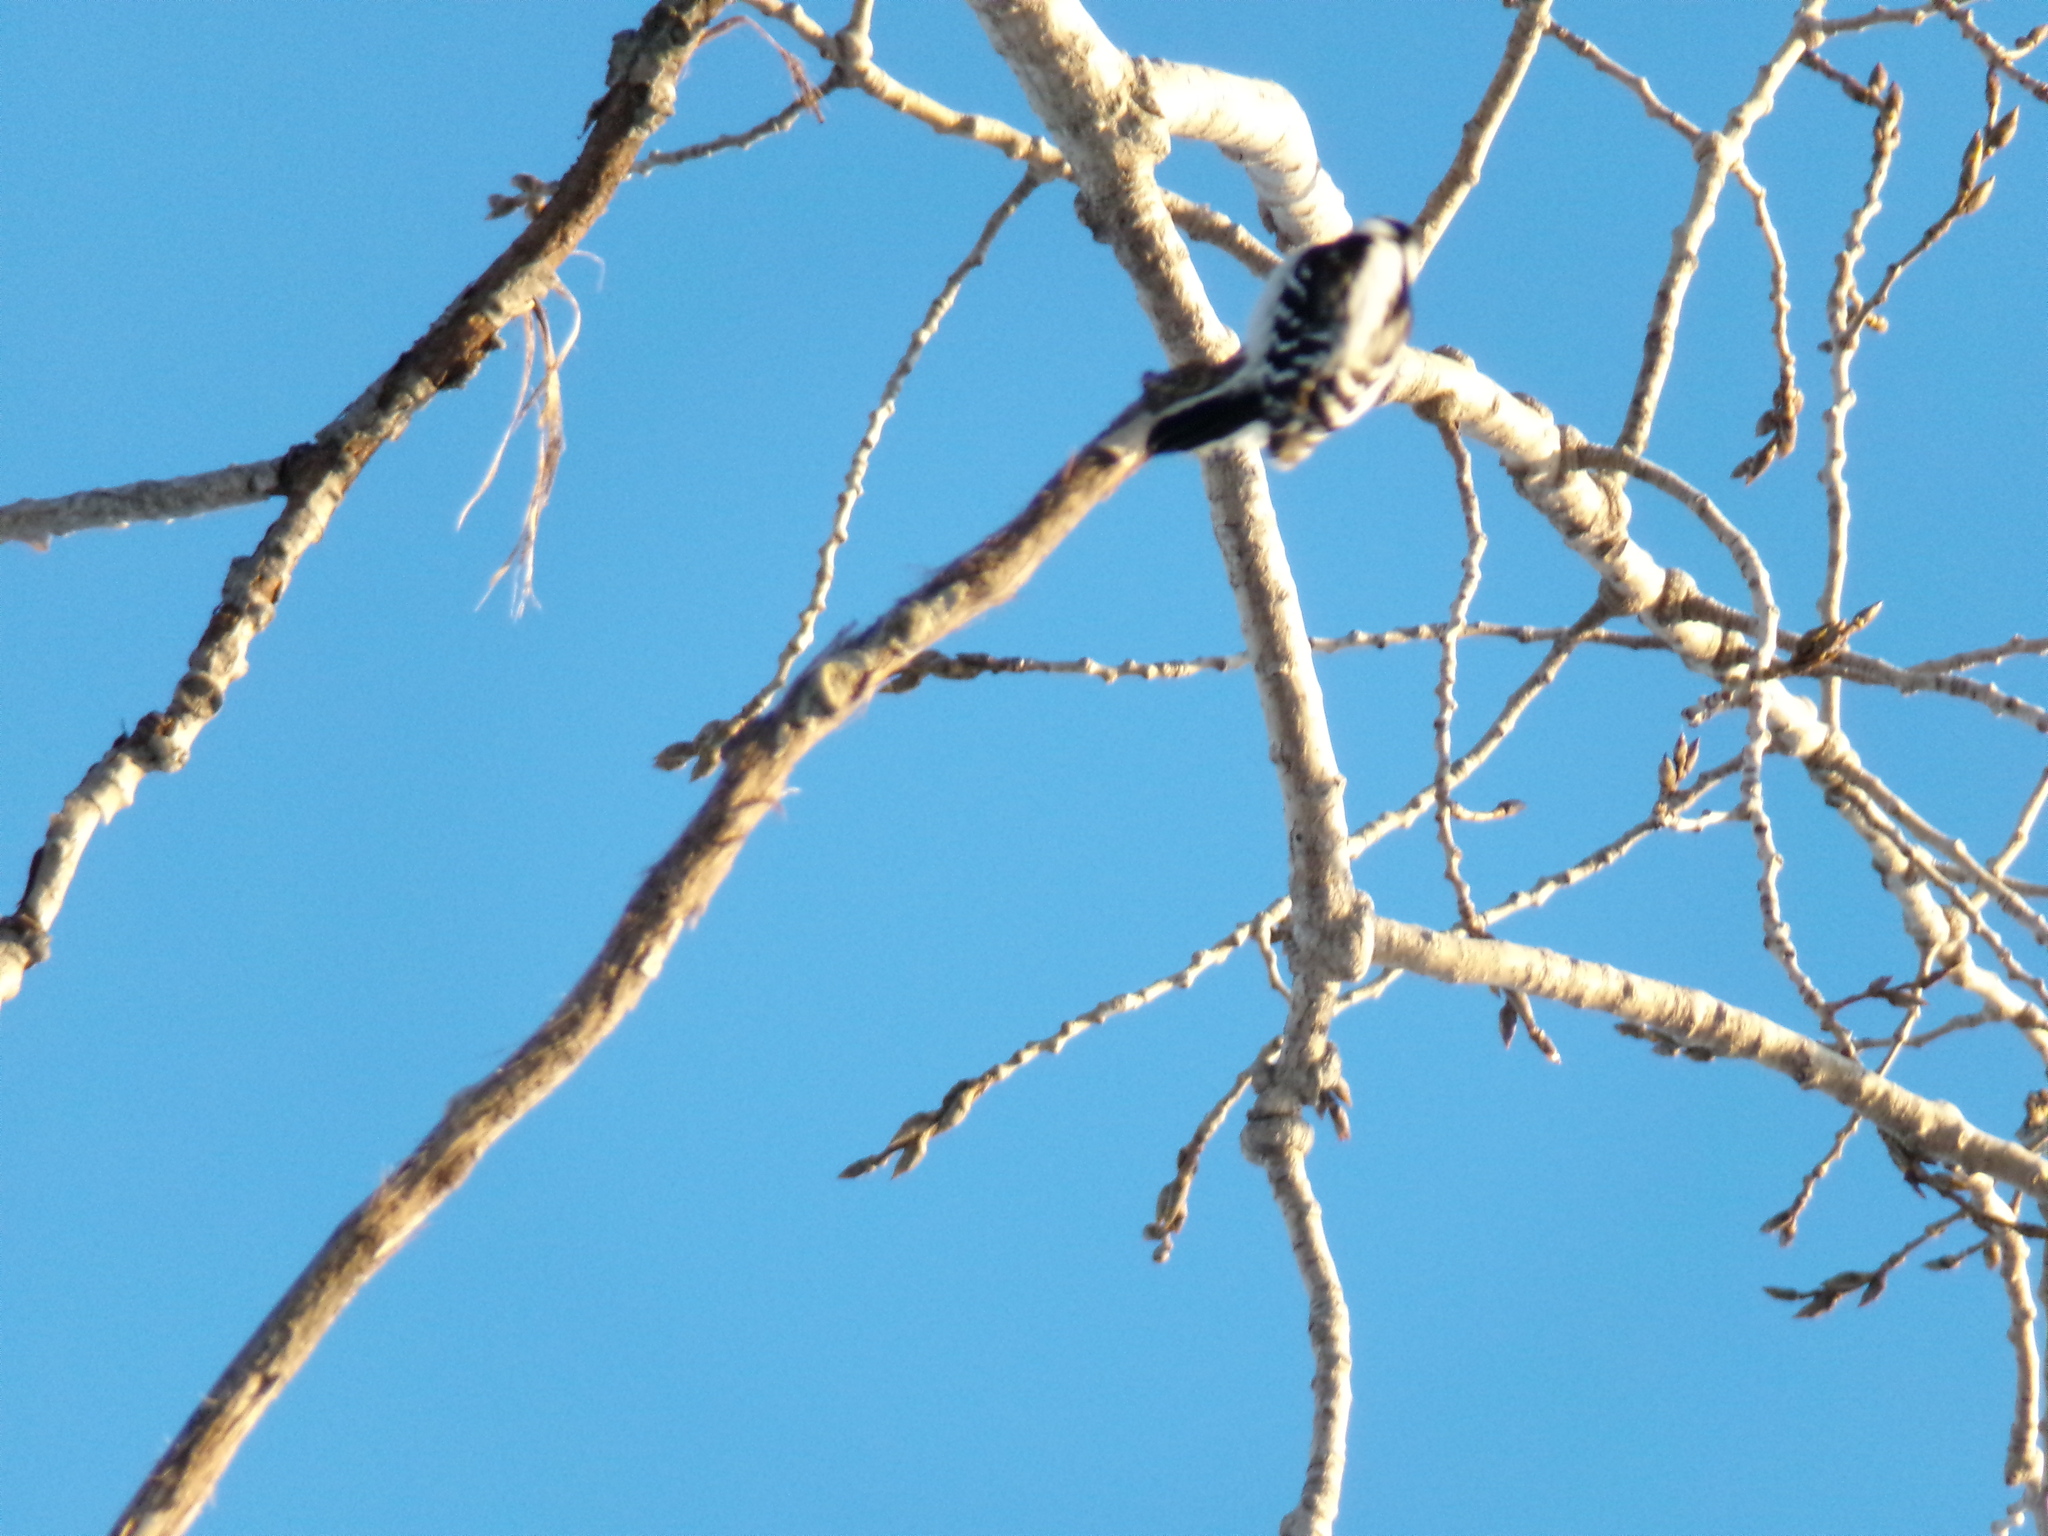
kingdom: Animalia
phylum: Chordata
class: Aves
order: Piciformes
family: Picidae
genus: Dryobates
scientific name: Dryobates pubescens
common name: Downy woodpecker
